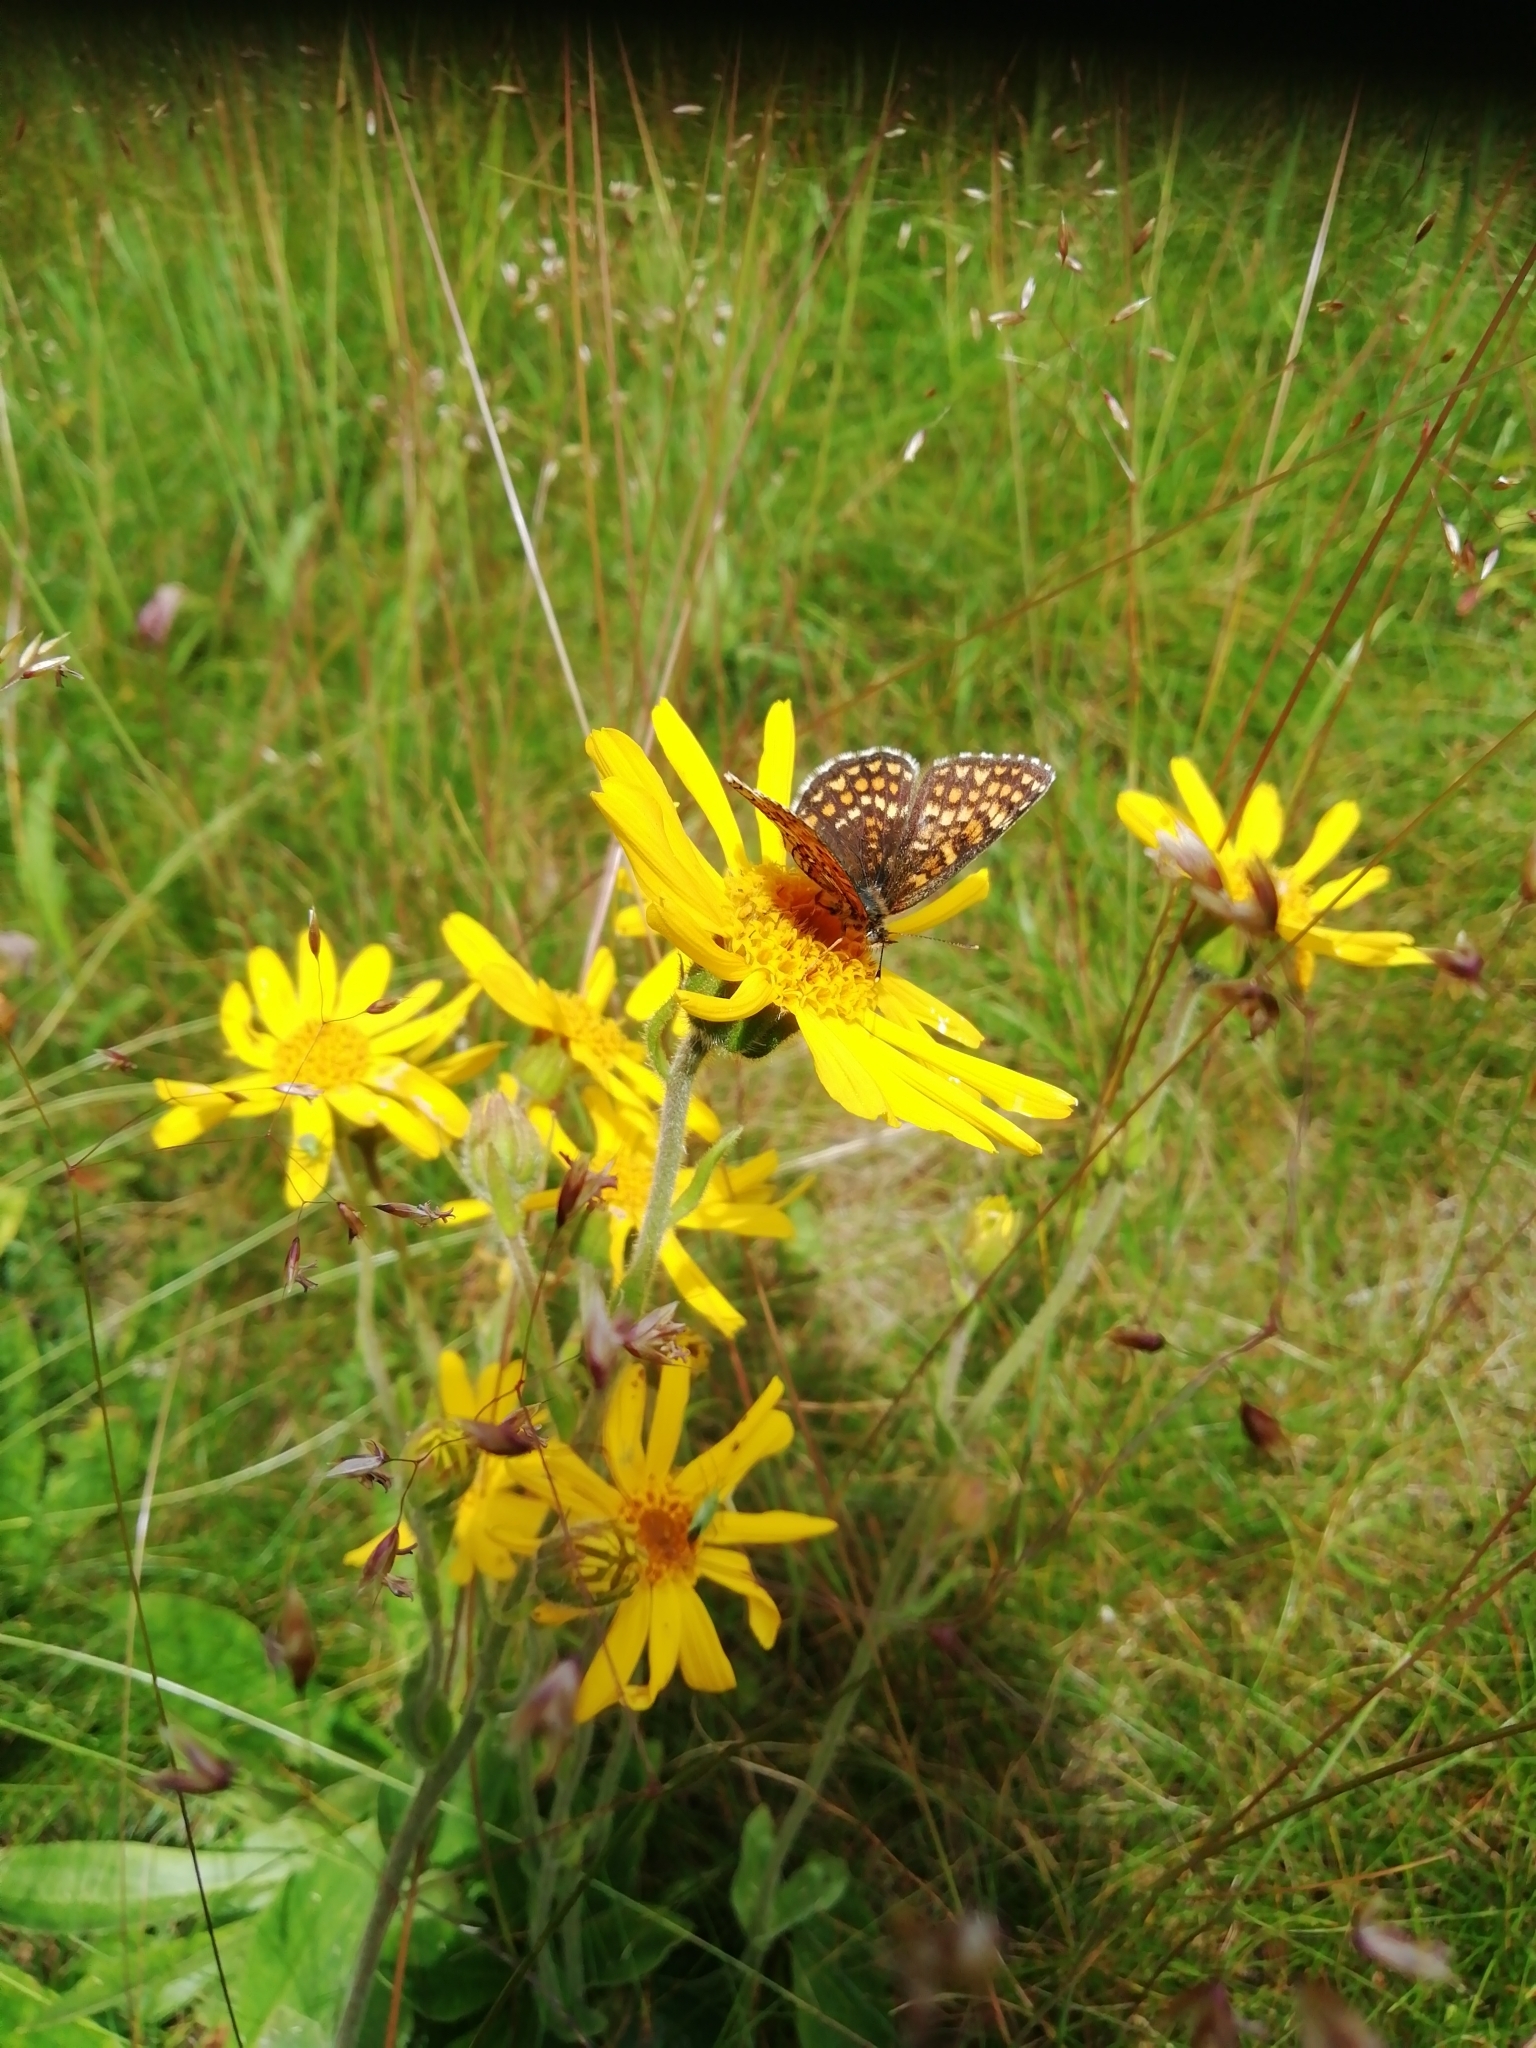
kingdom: Plantae
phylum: Tracheophyta
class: Magnoliopsida
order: Asterales
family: Asteraceae
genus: Arnica
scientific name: Arnica montana
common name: Leopard's bane
